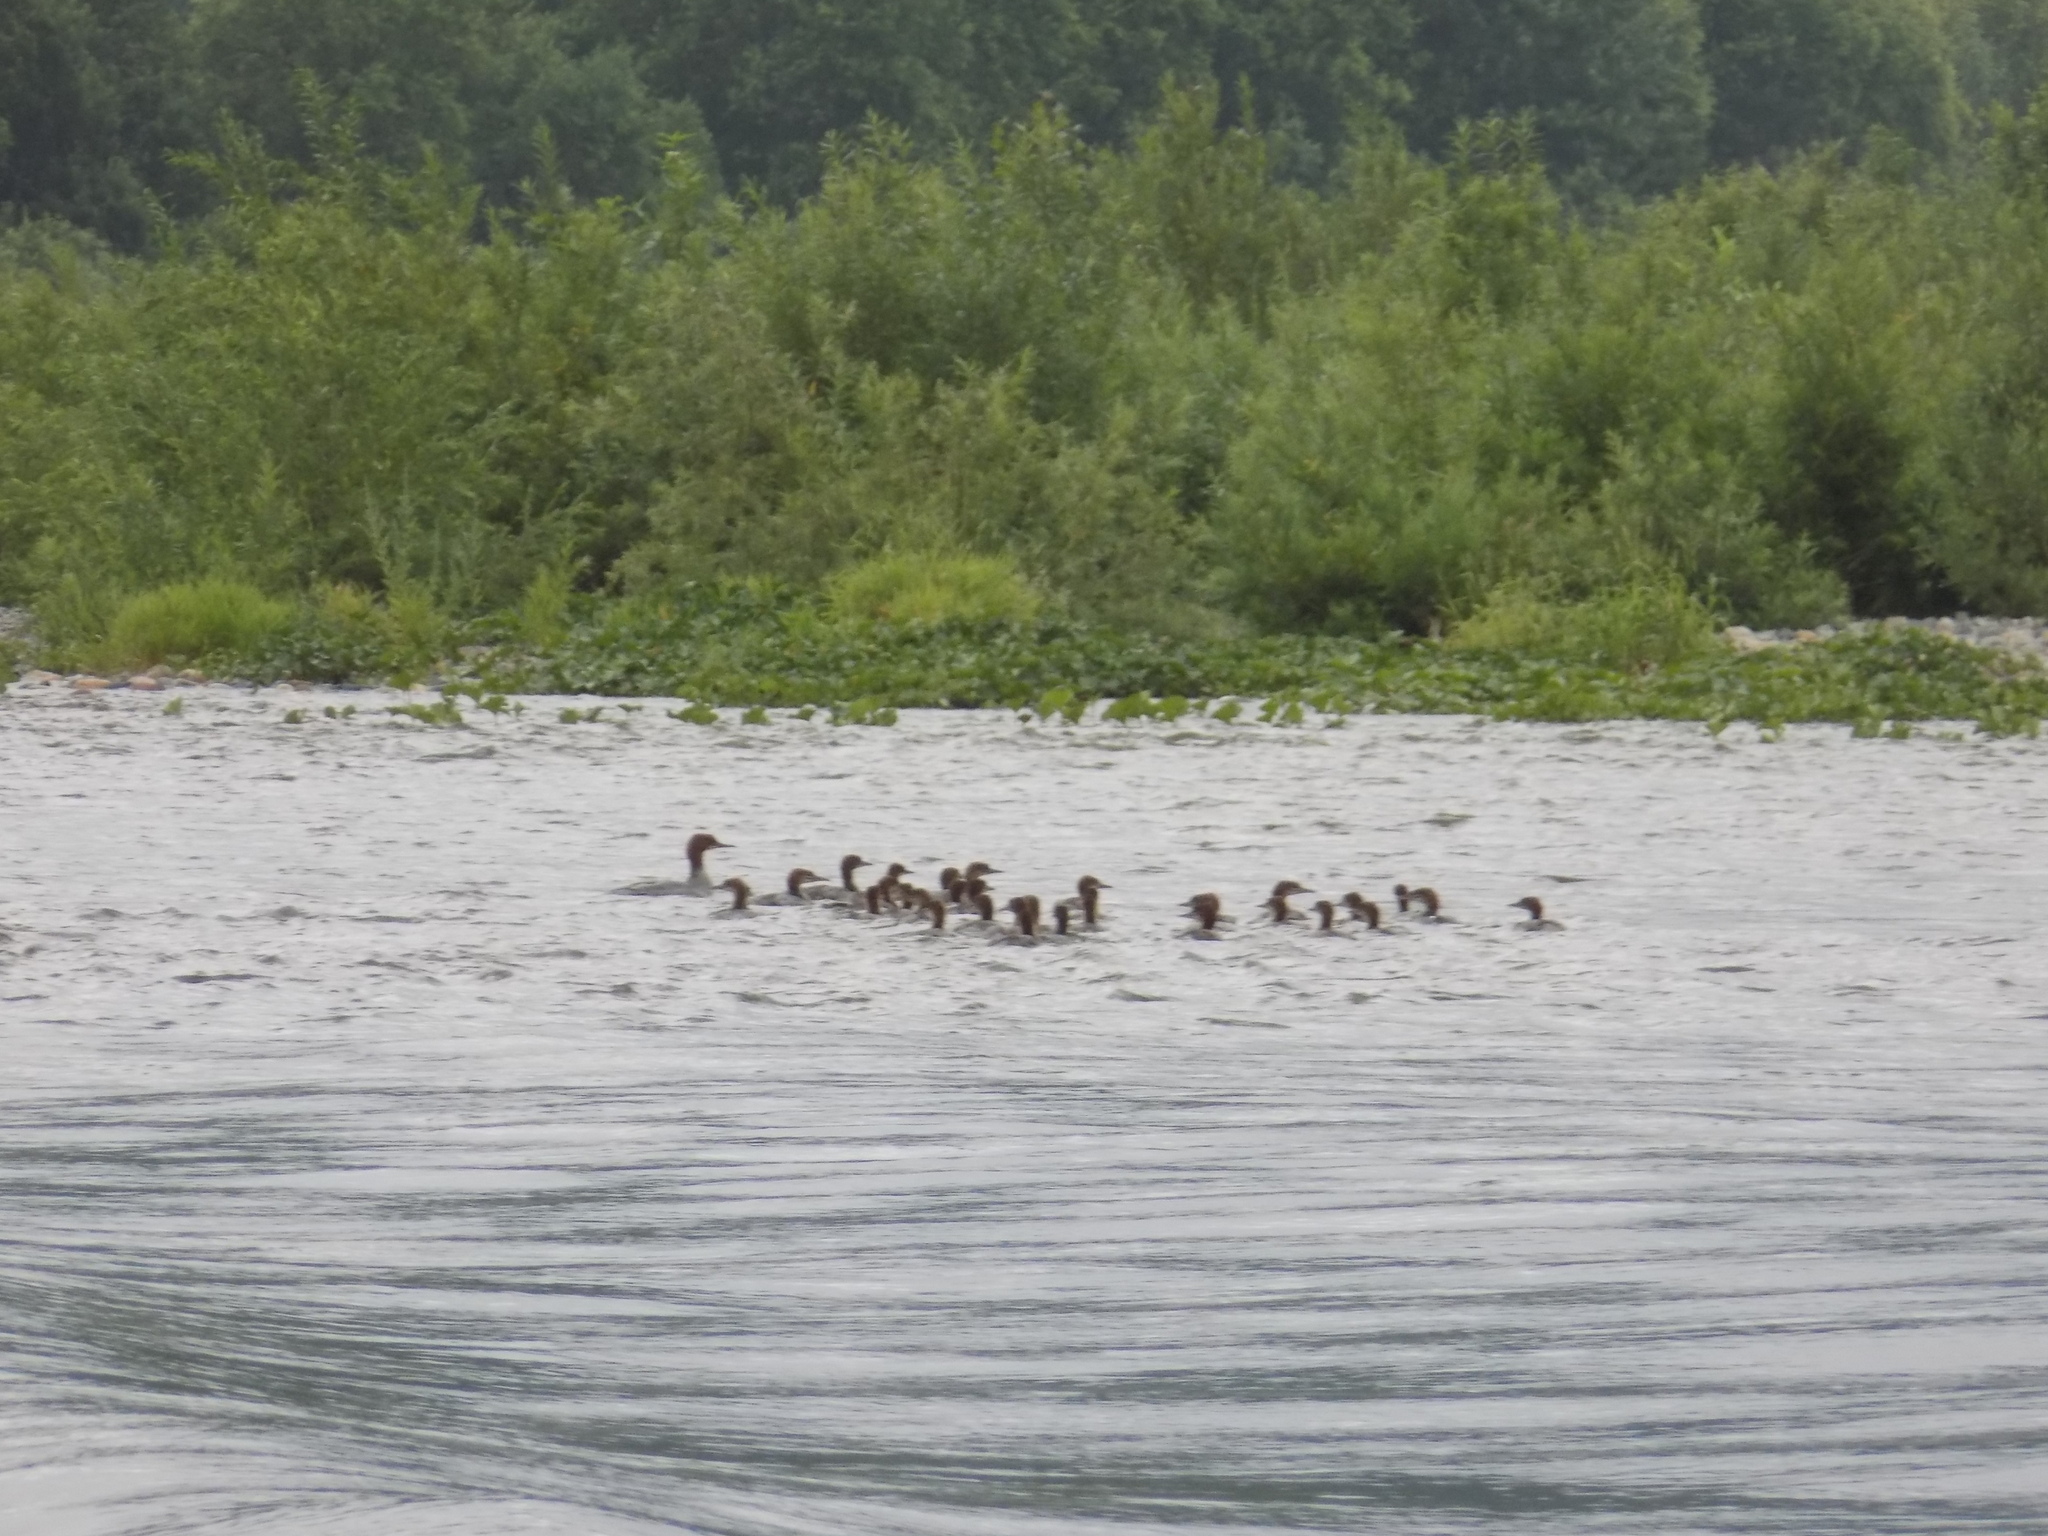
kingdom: Animalia
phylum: Chordata
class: Aves
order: Anseriformes
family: Anatidae
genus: Mergus
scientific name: Mergus merganser
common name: Common merganser
